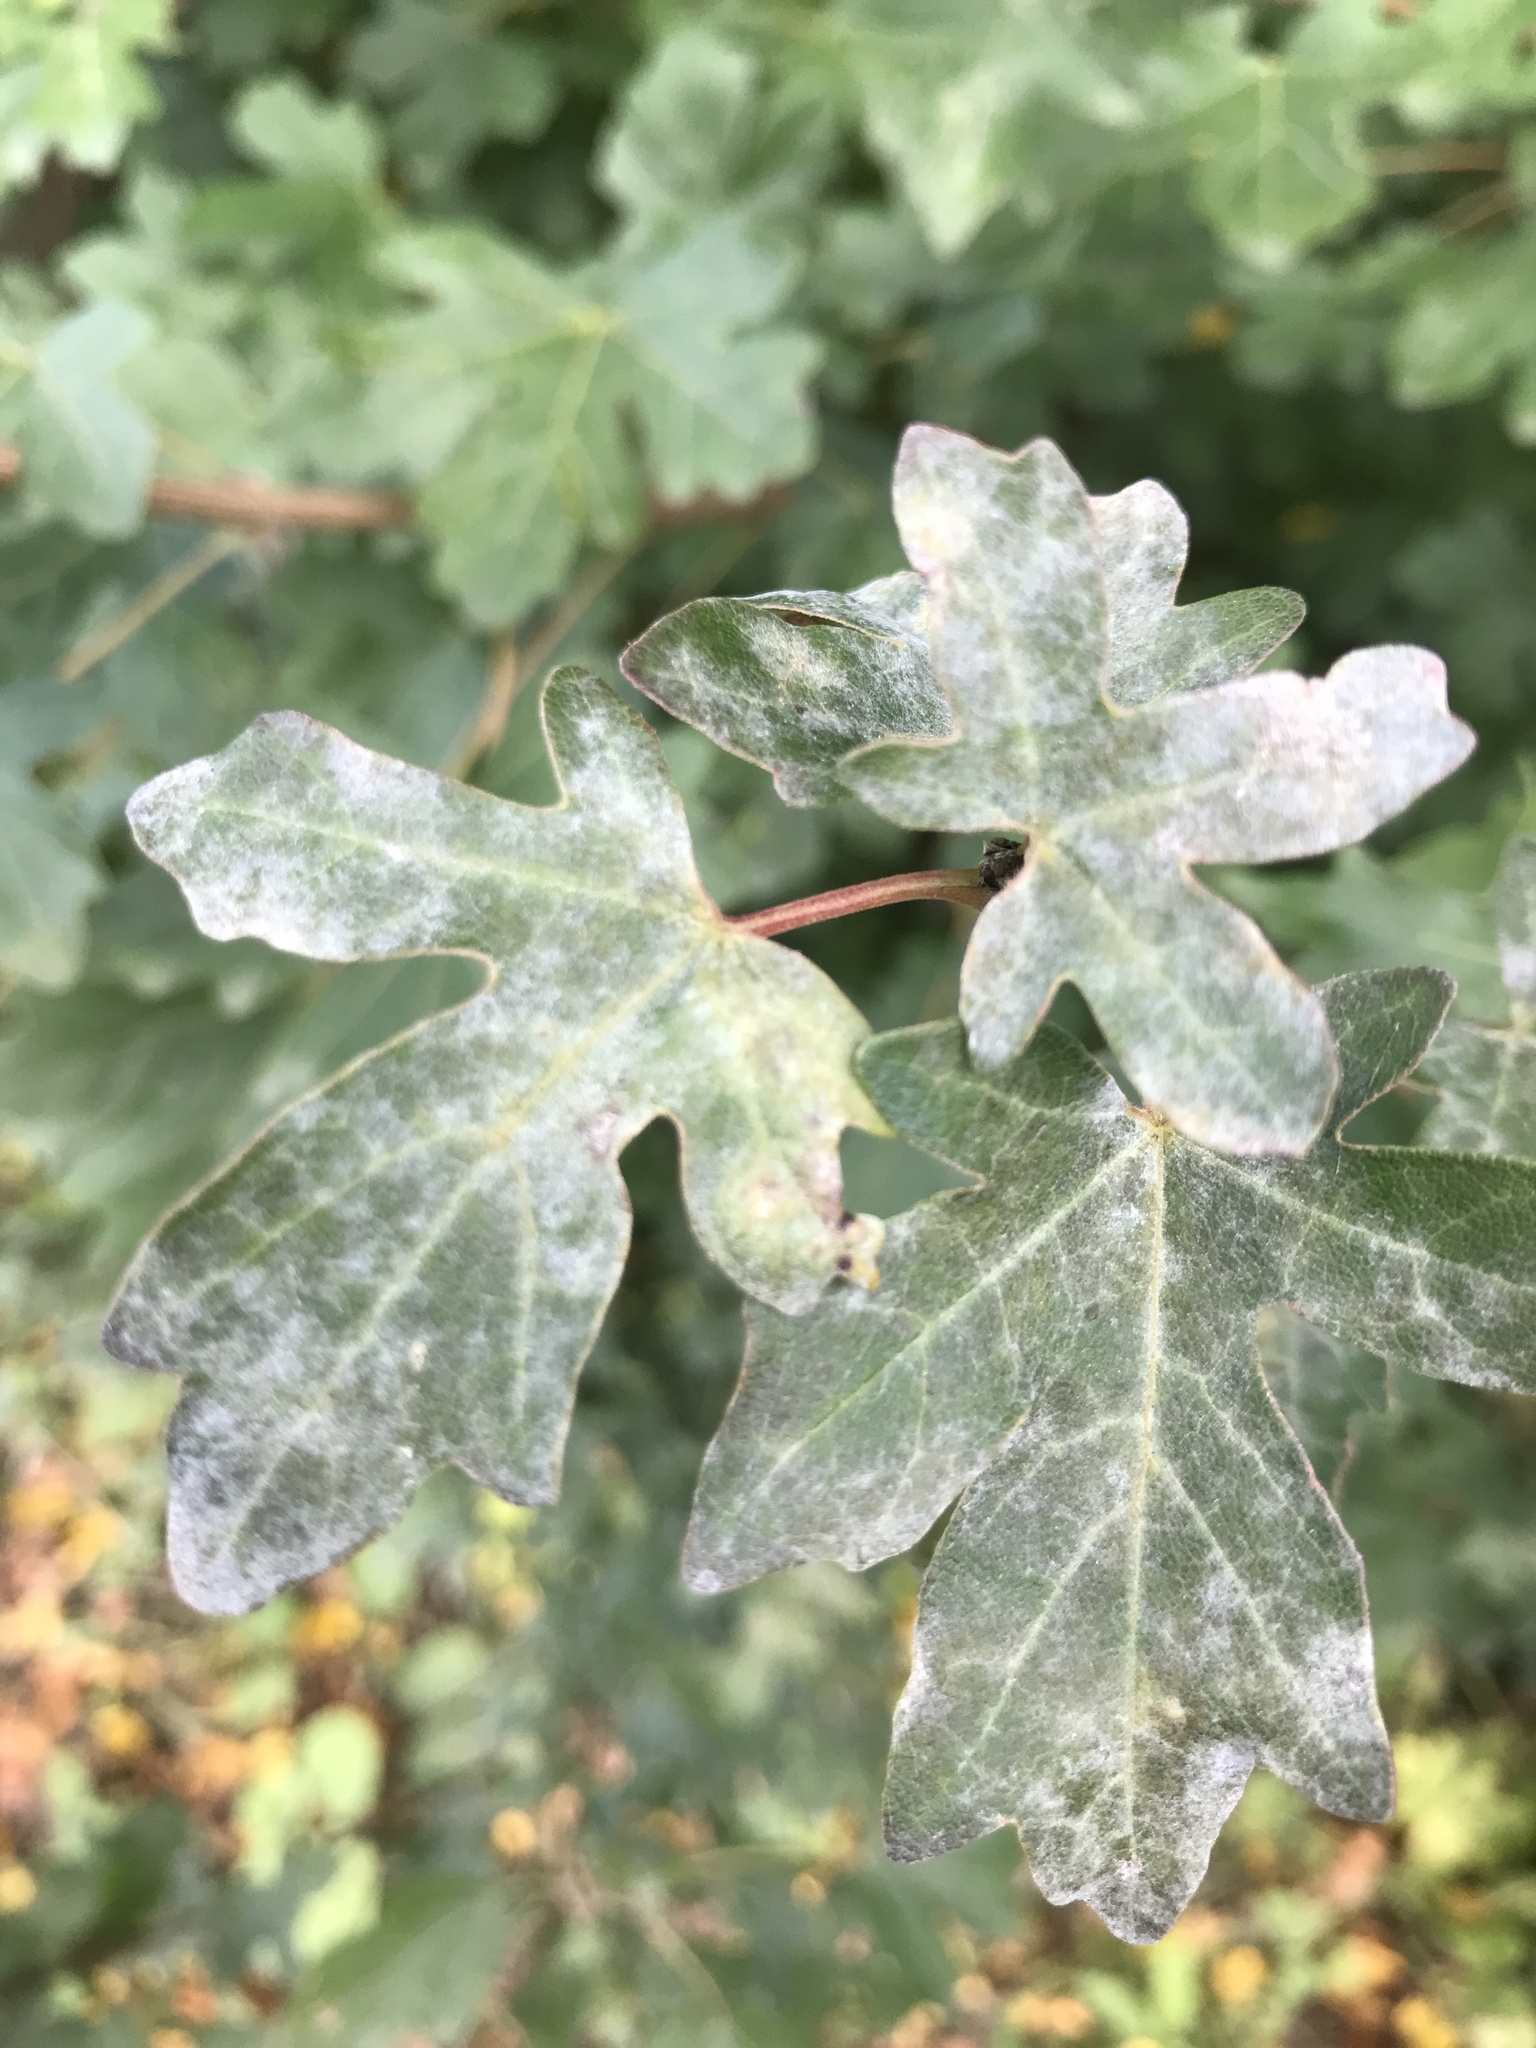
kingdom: Fungi
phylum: Ascomycota
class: Leotiomycetes
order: Helotiales
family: Erysiphaceae
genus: Sawadaea
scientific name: Sawadaea bicornis
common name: Maple mildew
